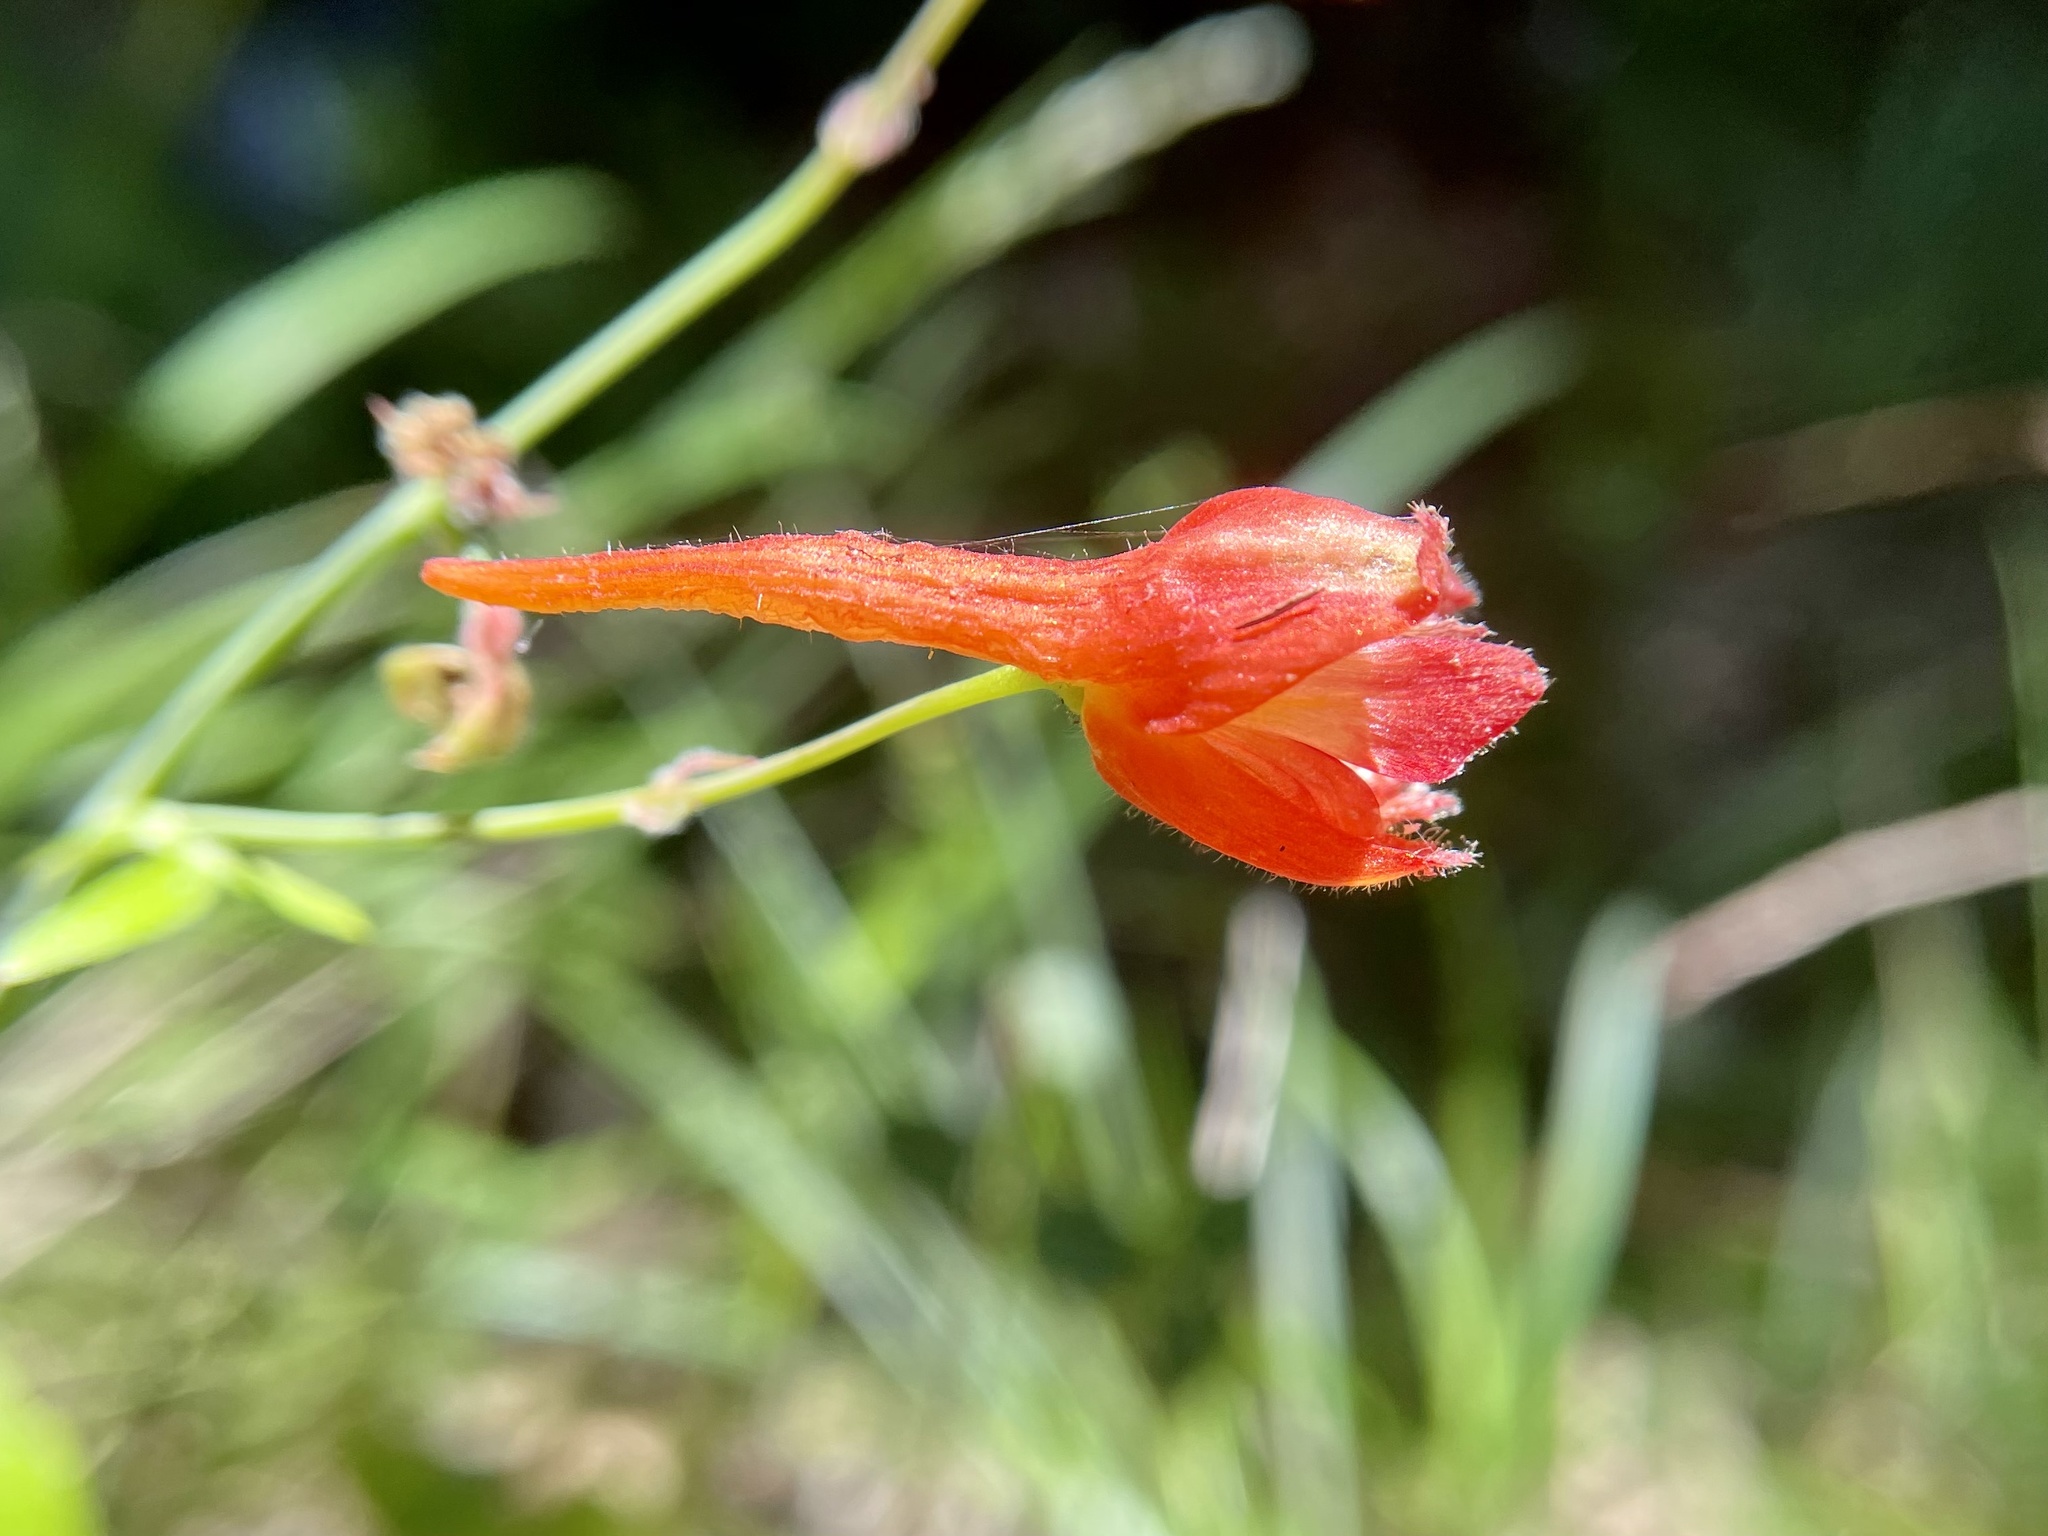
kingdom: Plantae
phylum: Tracheophyta
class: Magnoliopsida
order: Ranunculales
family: Ranunculaceae
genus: Delphinium
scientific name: Delphinium nudicaule
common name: Red larkspur
